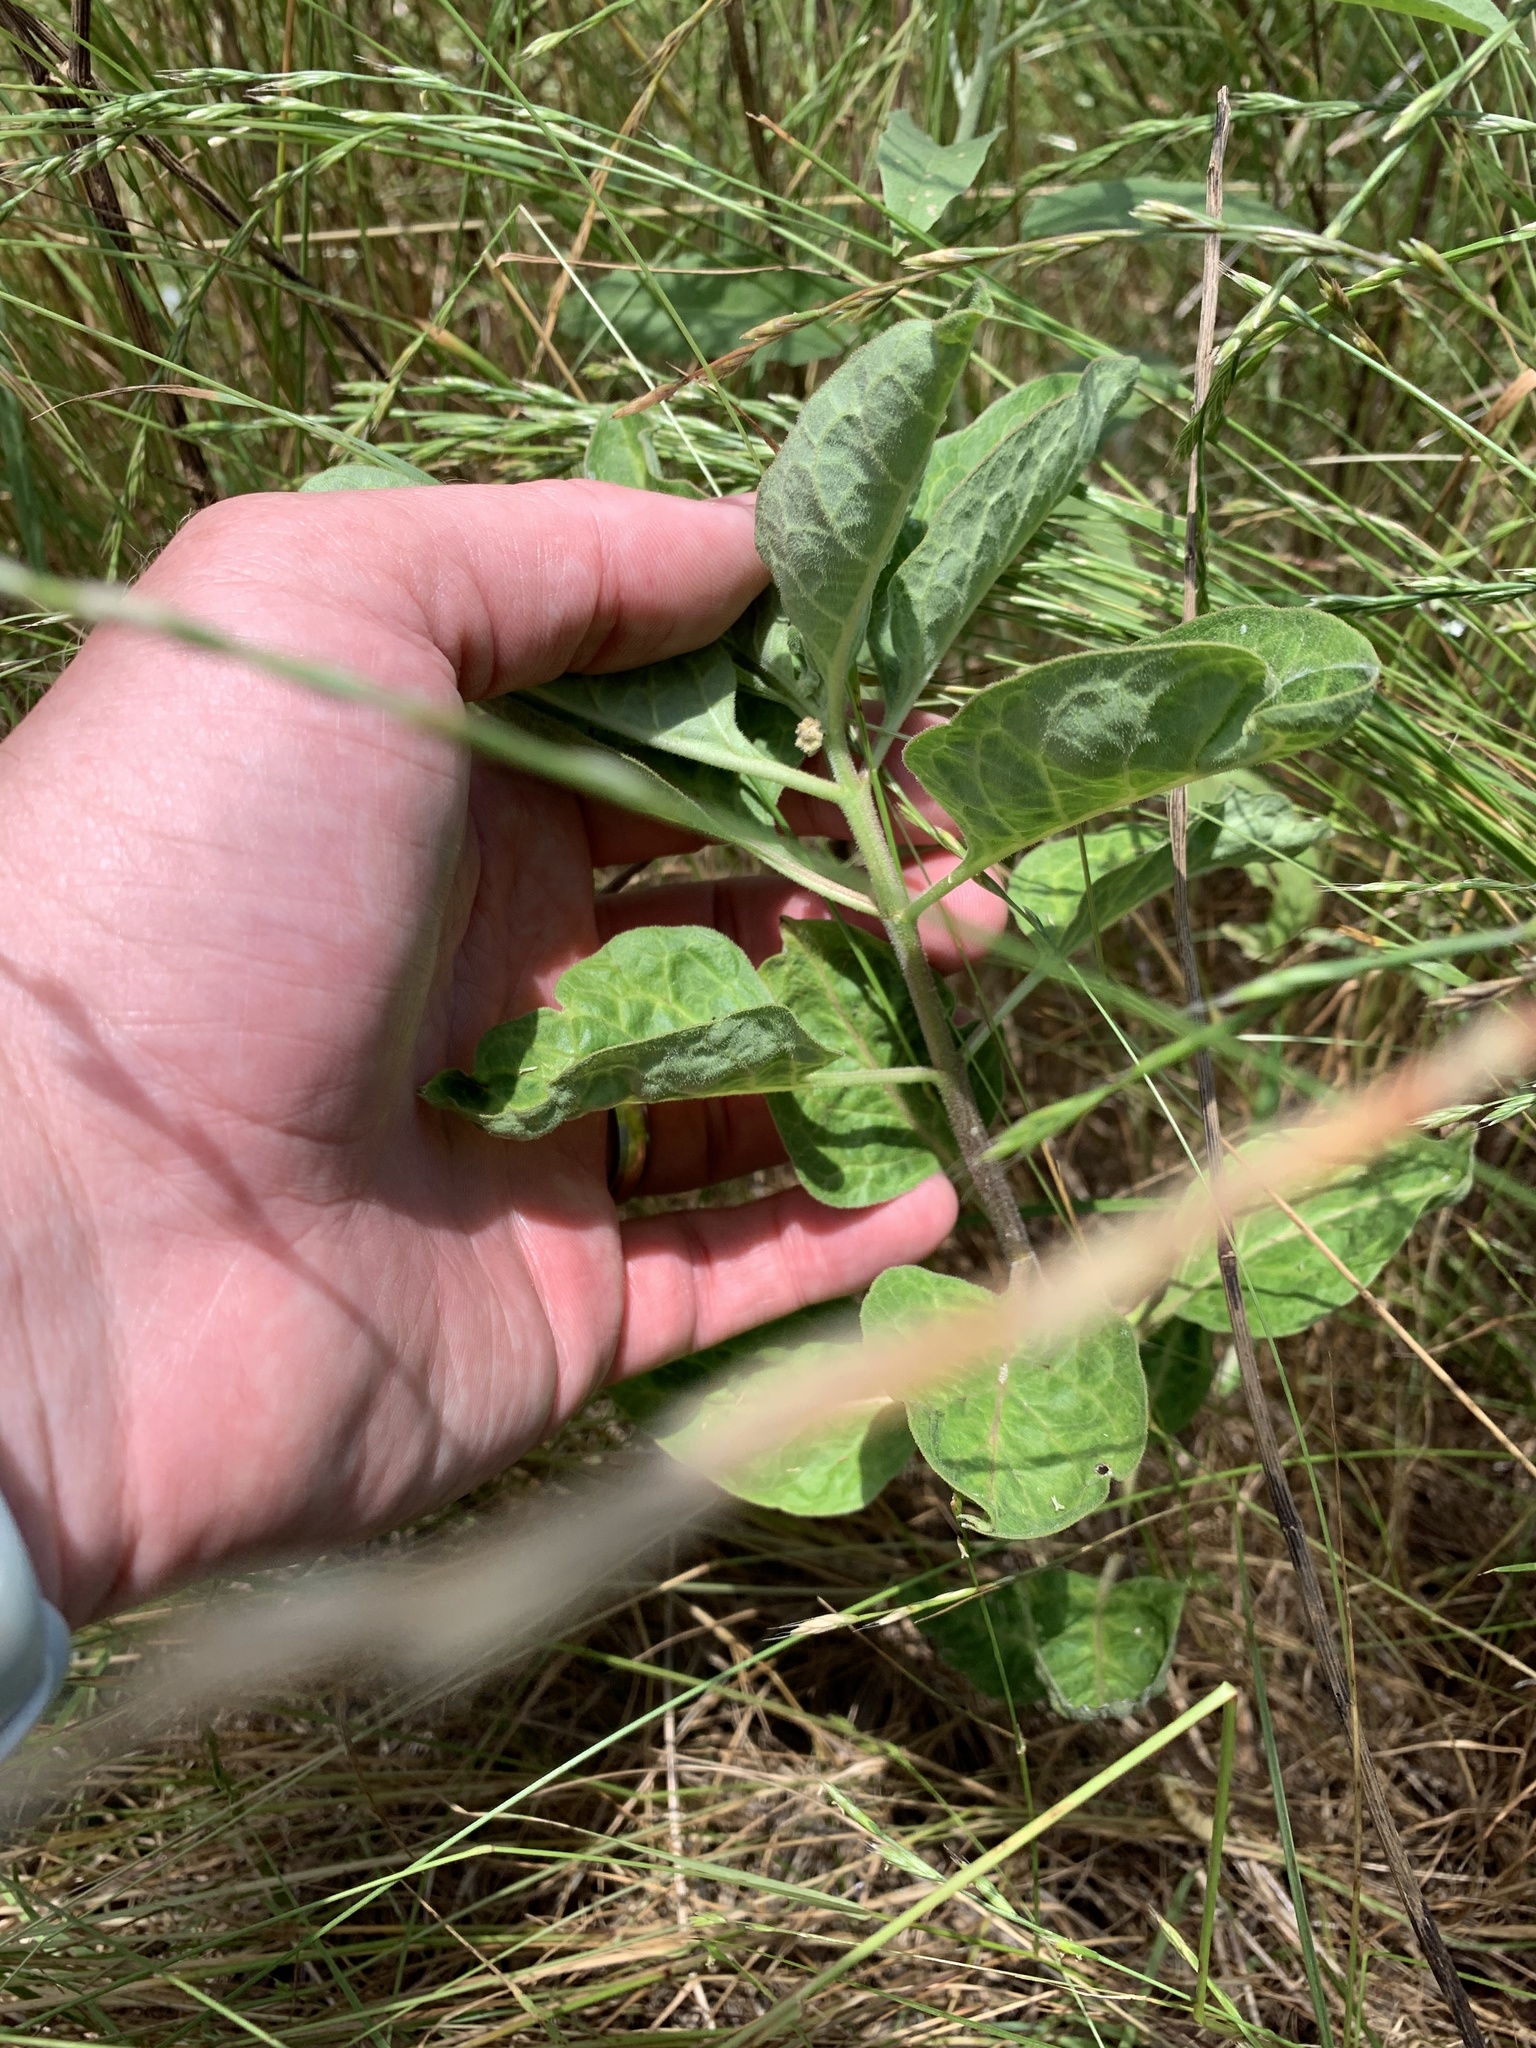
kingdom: Plantae
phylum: Tracheophyta
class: Magnoliopsida
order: Gentianales
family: Apocynaceae
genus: Asclepias
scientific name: Asclepias oenotheroides
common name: Zizotes milkweed
